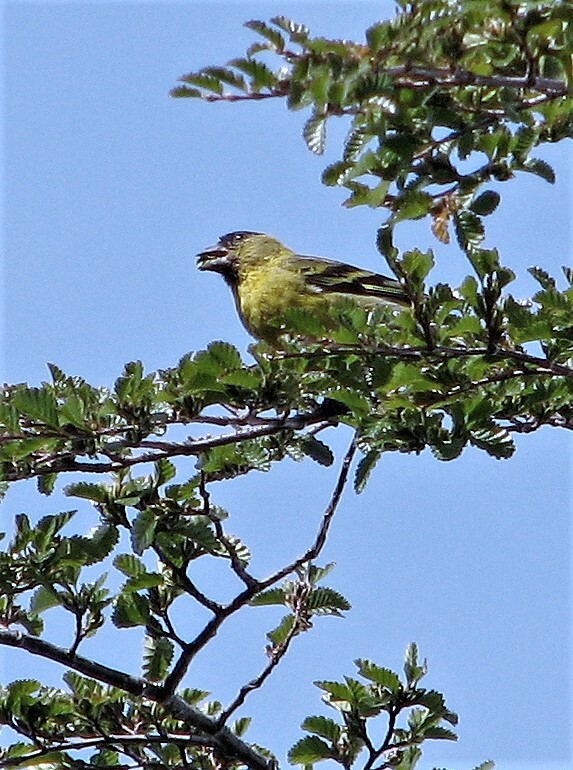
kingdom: Animalia
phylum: Chordata
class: Aves
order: Passeriformes
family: Fringillidae
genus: Spinus
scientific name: Spinus barbatus
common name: Black-chinned siskin
